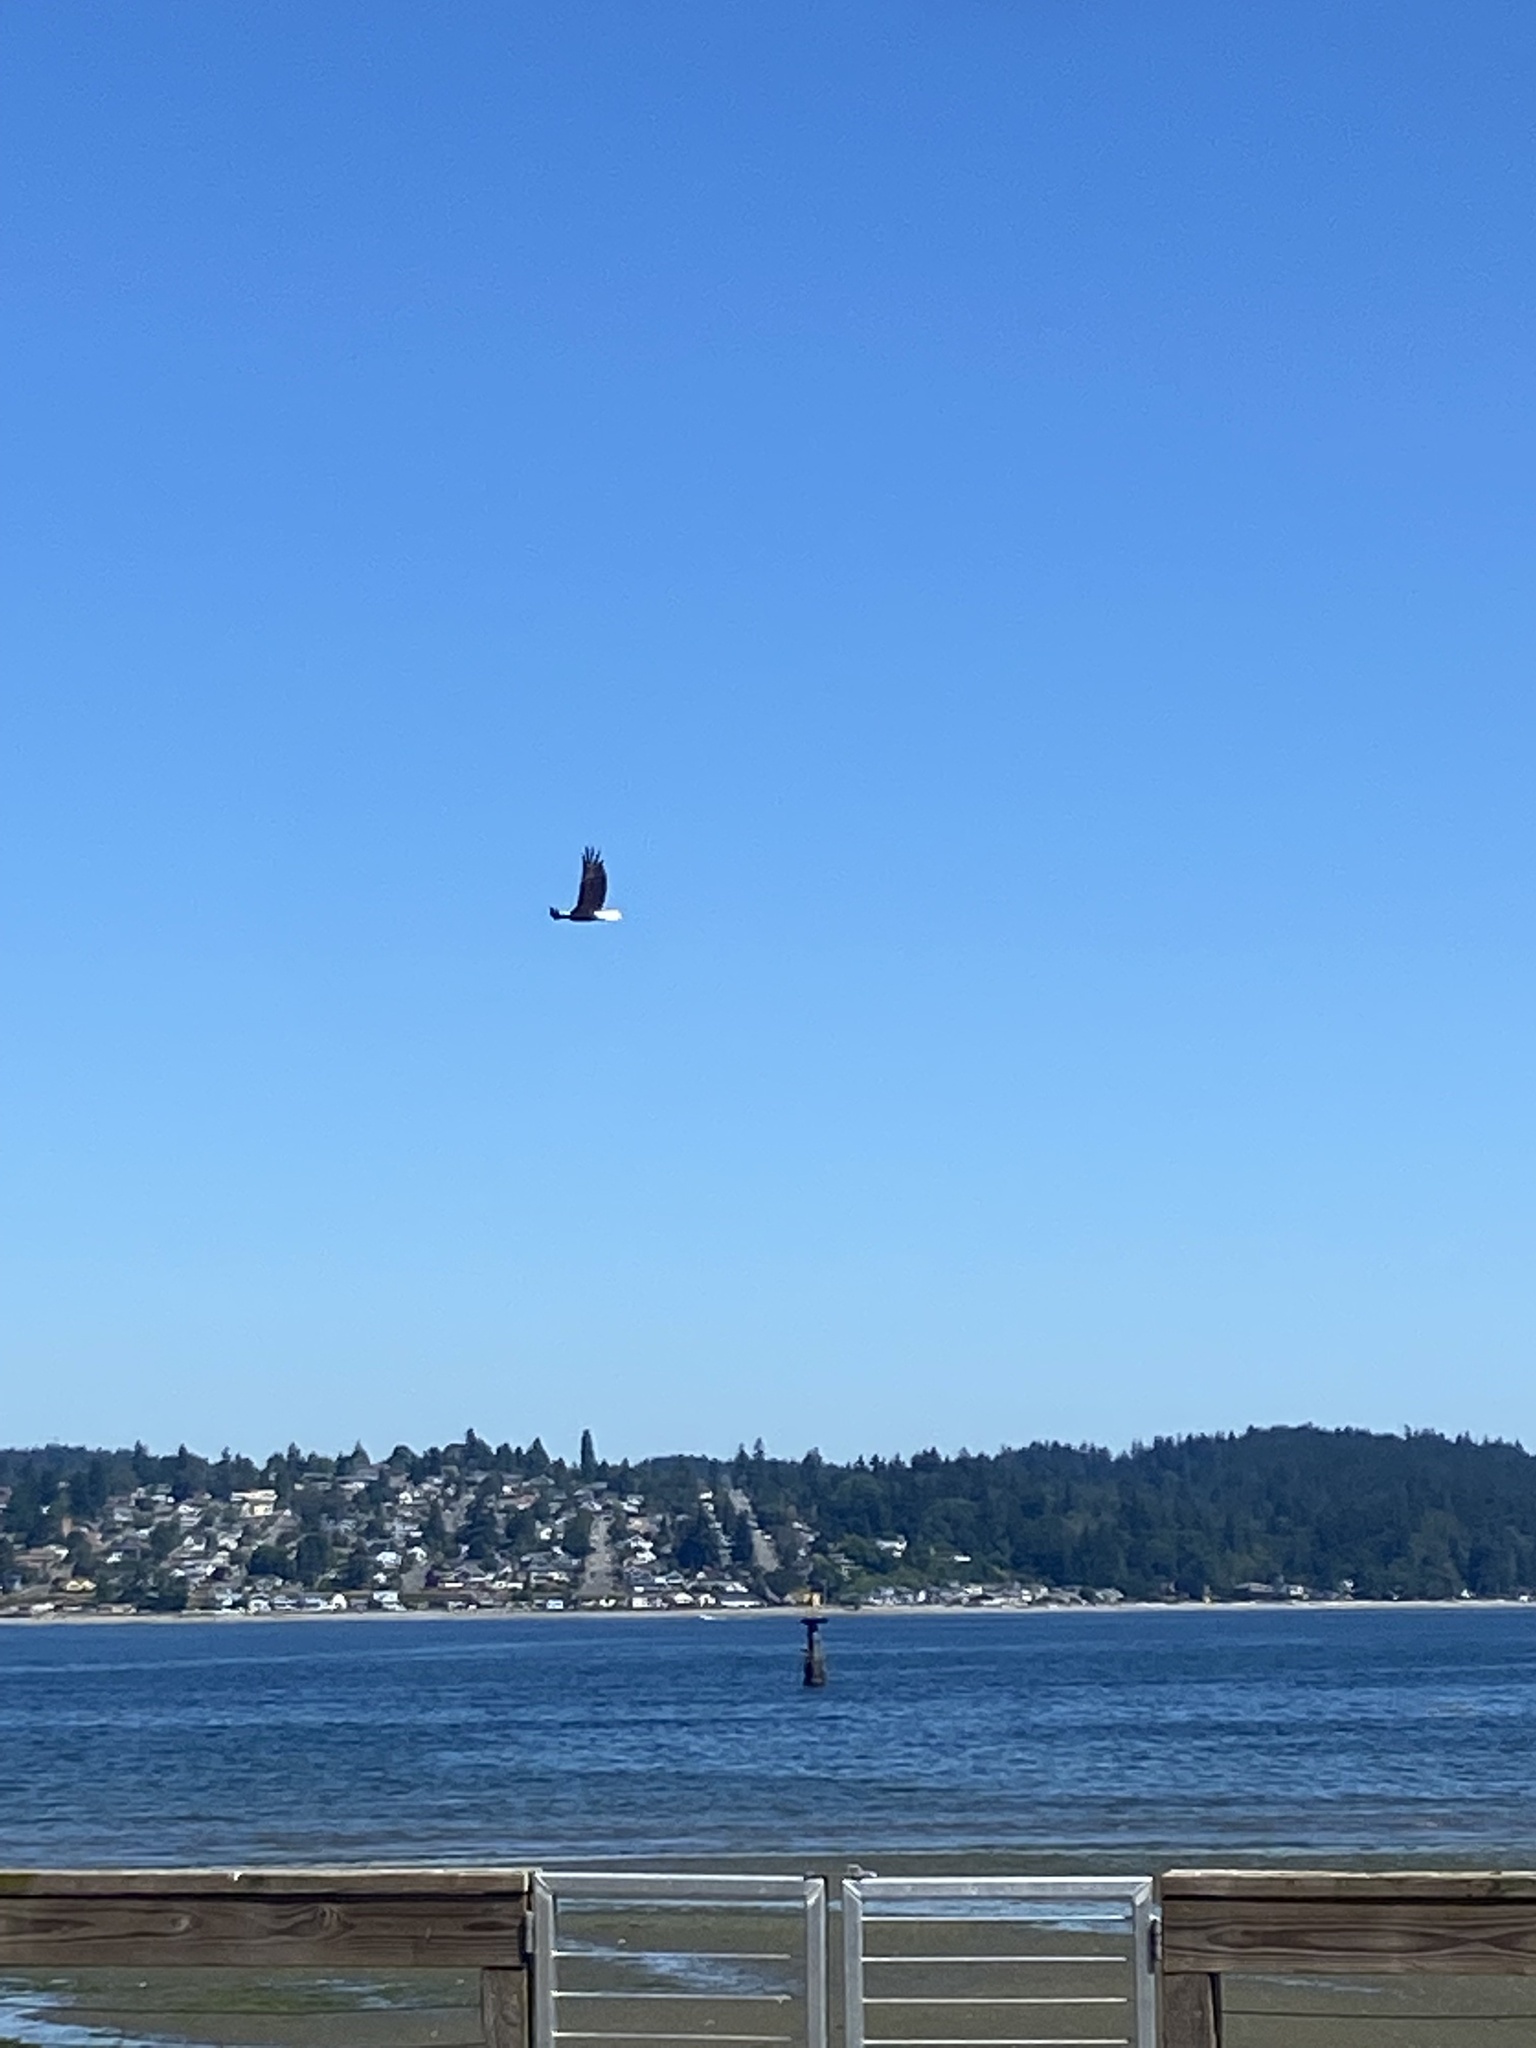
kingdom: Animalia
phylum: Chordata
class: Aves
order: Accipitriformes
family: Accipitridae
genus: Haliaeetus
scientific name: Haliaeetus leucocephalus
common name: Bald eagle
